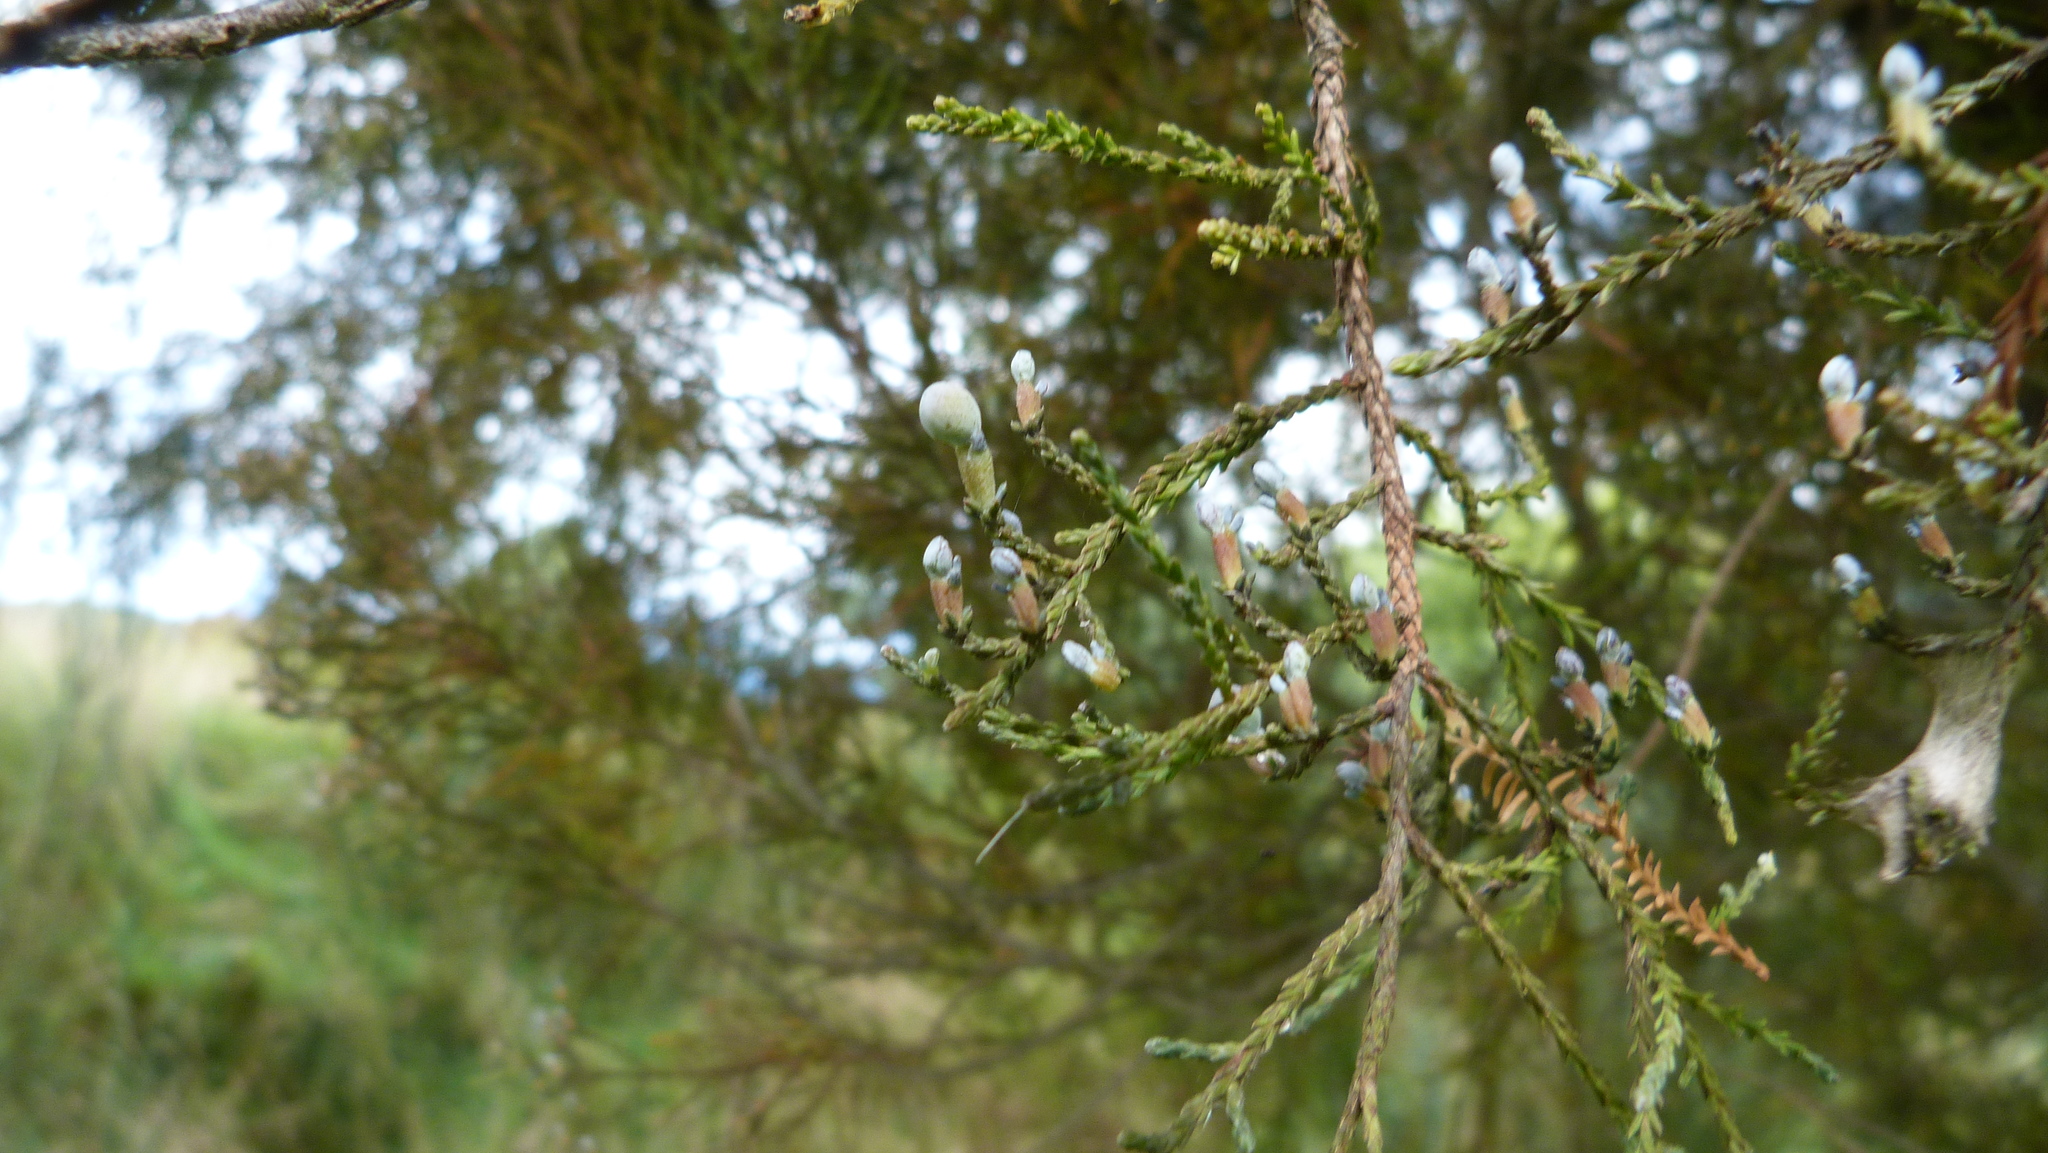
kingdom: Plantae
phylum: Tracheophyta
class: Pinopsida
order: Pinales
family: Podocarpaceae
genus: Dacrycarpus
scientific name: Dacrycarpus dacrydioides
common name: White pine
